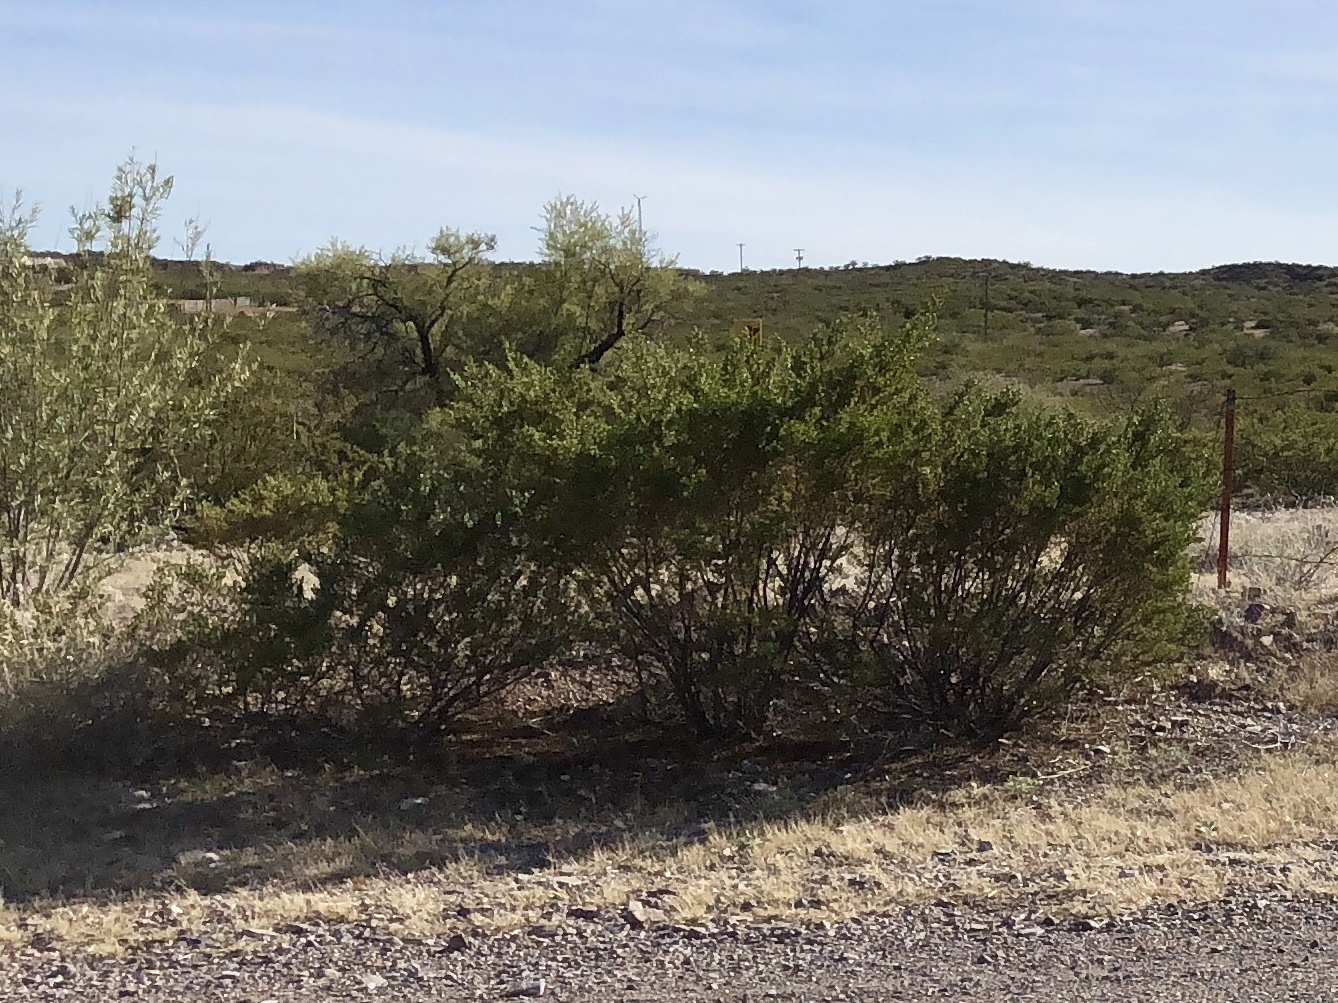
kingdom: Plantae
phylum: Tracheophyta
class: Magnoliopsida
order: Zygophyllales
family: Zygophyllaceae
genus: Larrea
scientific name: Larrea tridentata
